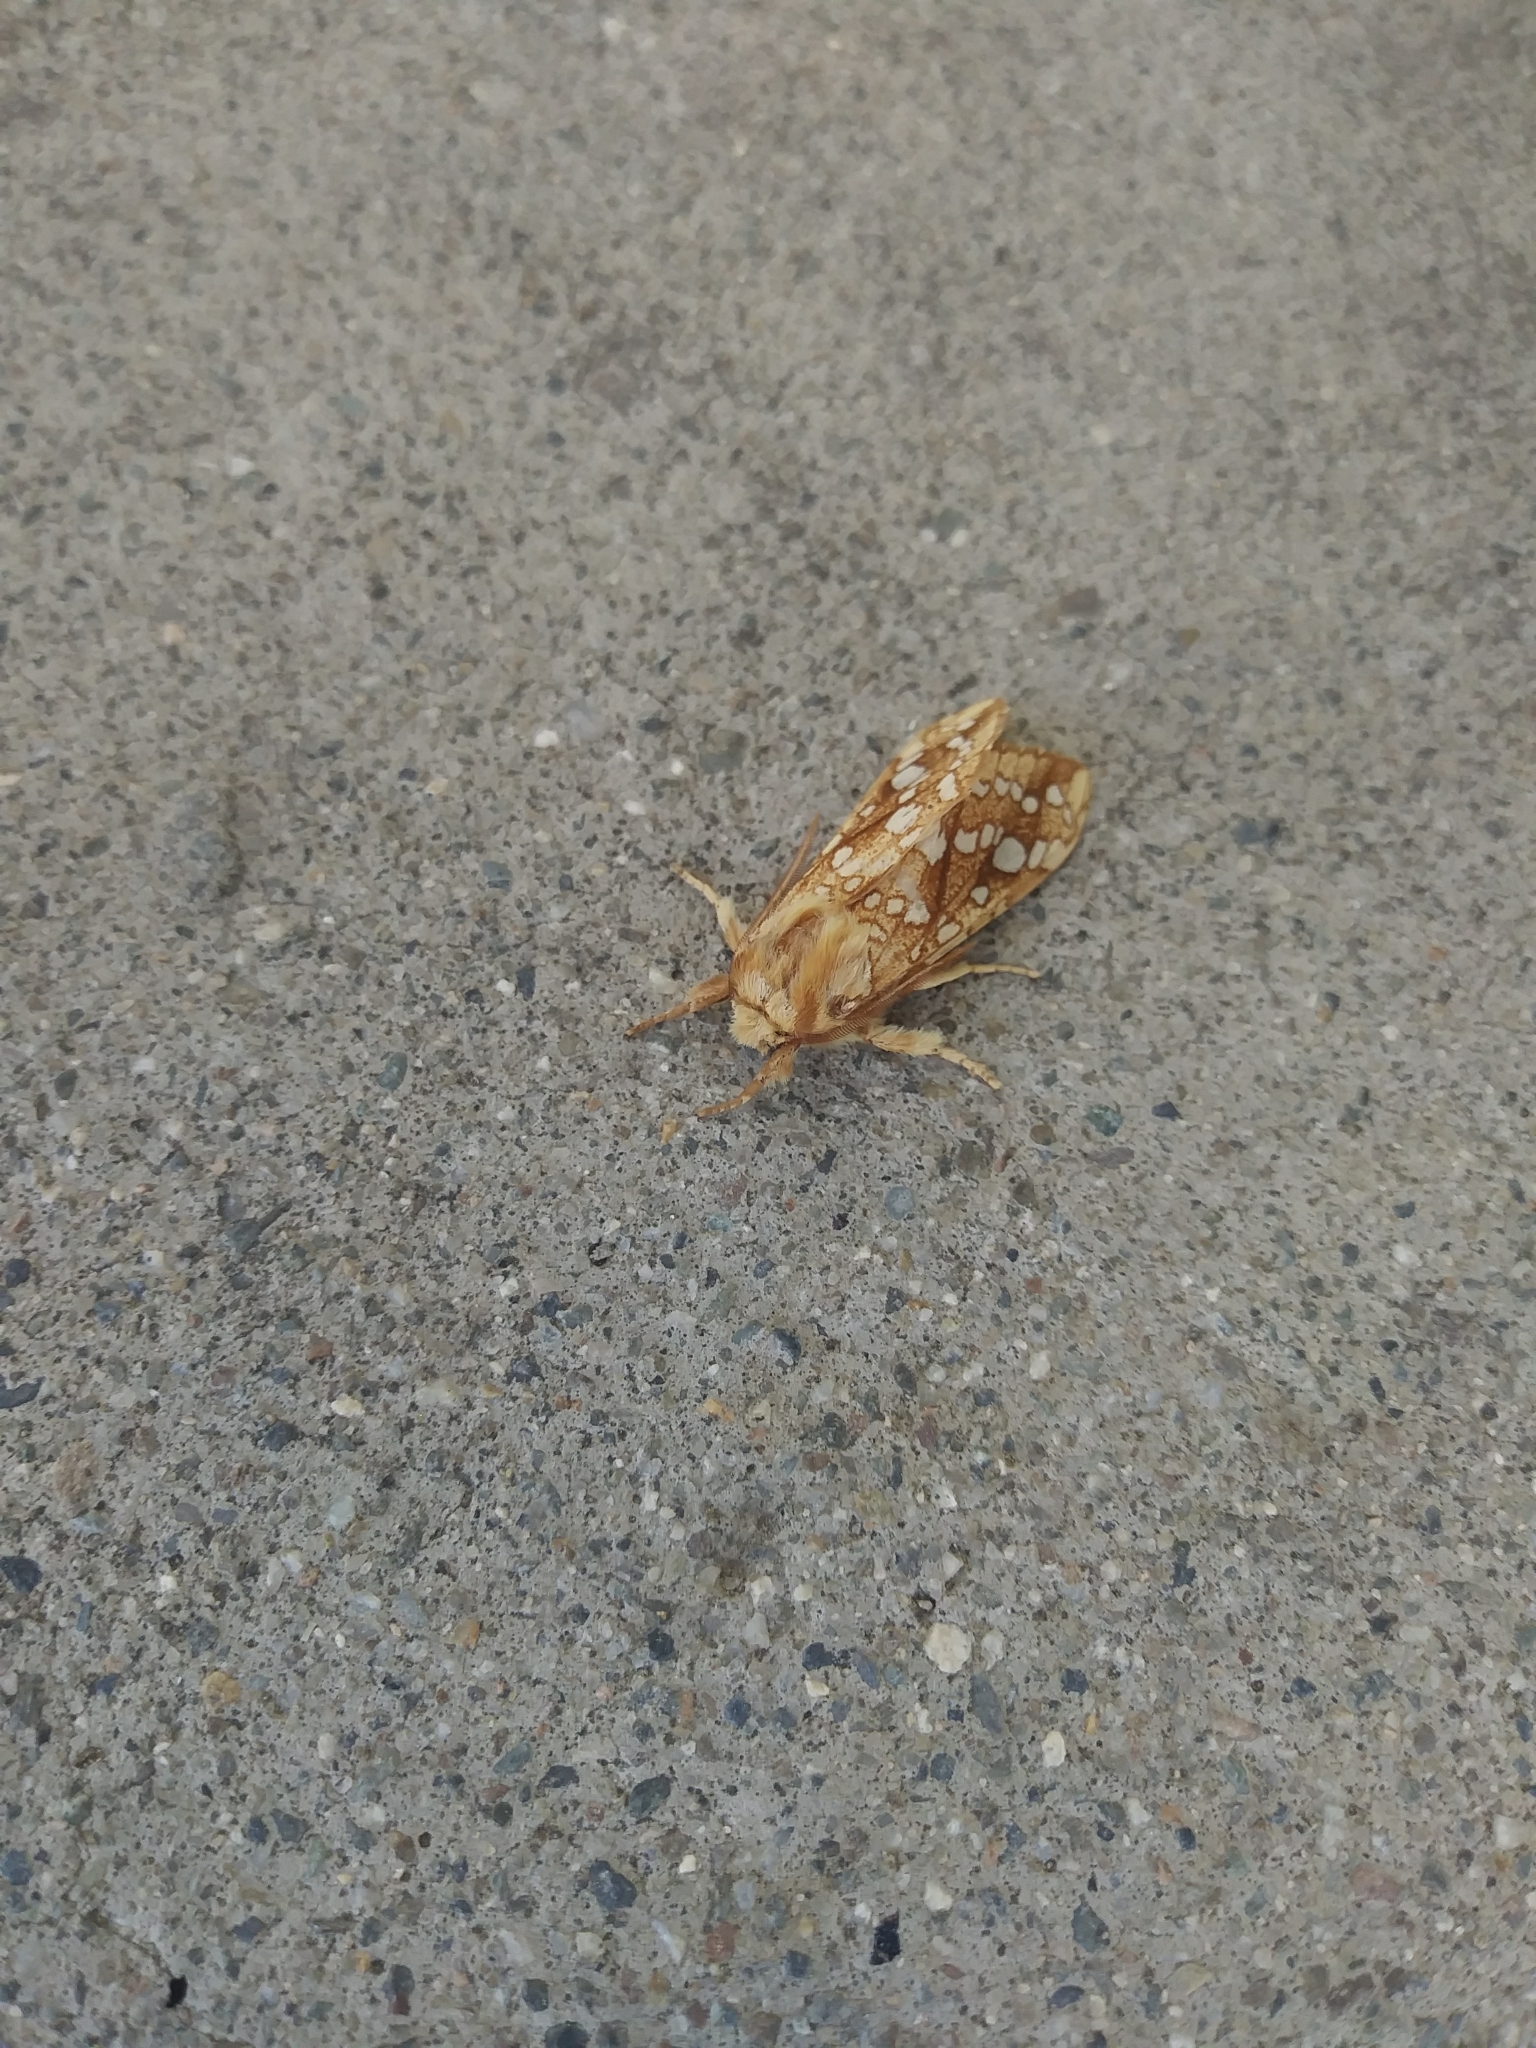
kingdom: Animalia
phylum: Arthropoda
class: Insecta
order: Lepidoptera
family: Erebidae
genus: Lophocampa
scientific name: Lophocampa caryae
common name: Hickory tussock moth
